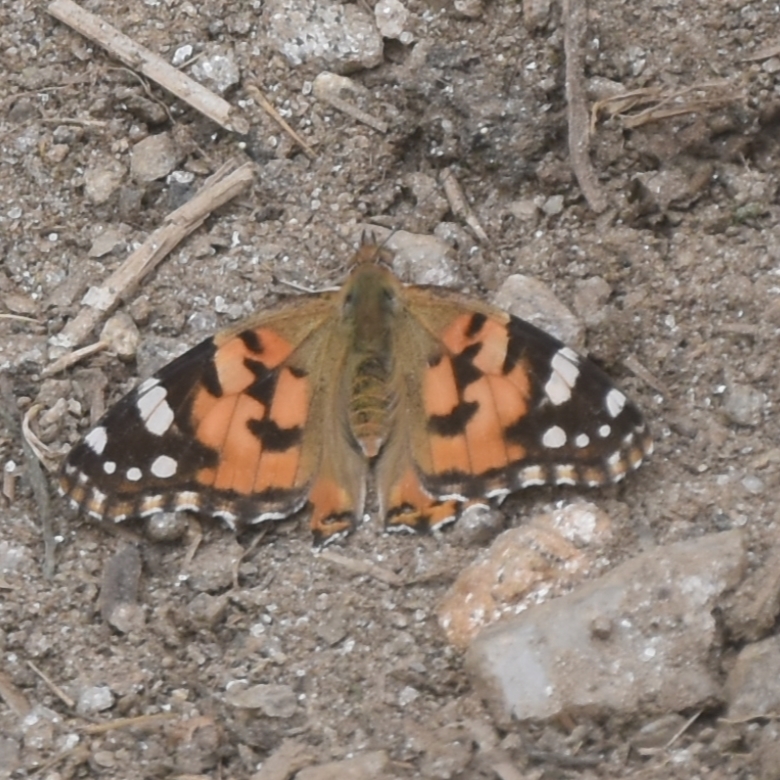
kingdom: Animalia
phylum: Arthropoda
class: Insecta
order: Lepidoptera
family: Nymphalidae
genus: Vanessa
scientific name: Vanessa cardui
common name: Painted lady
